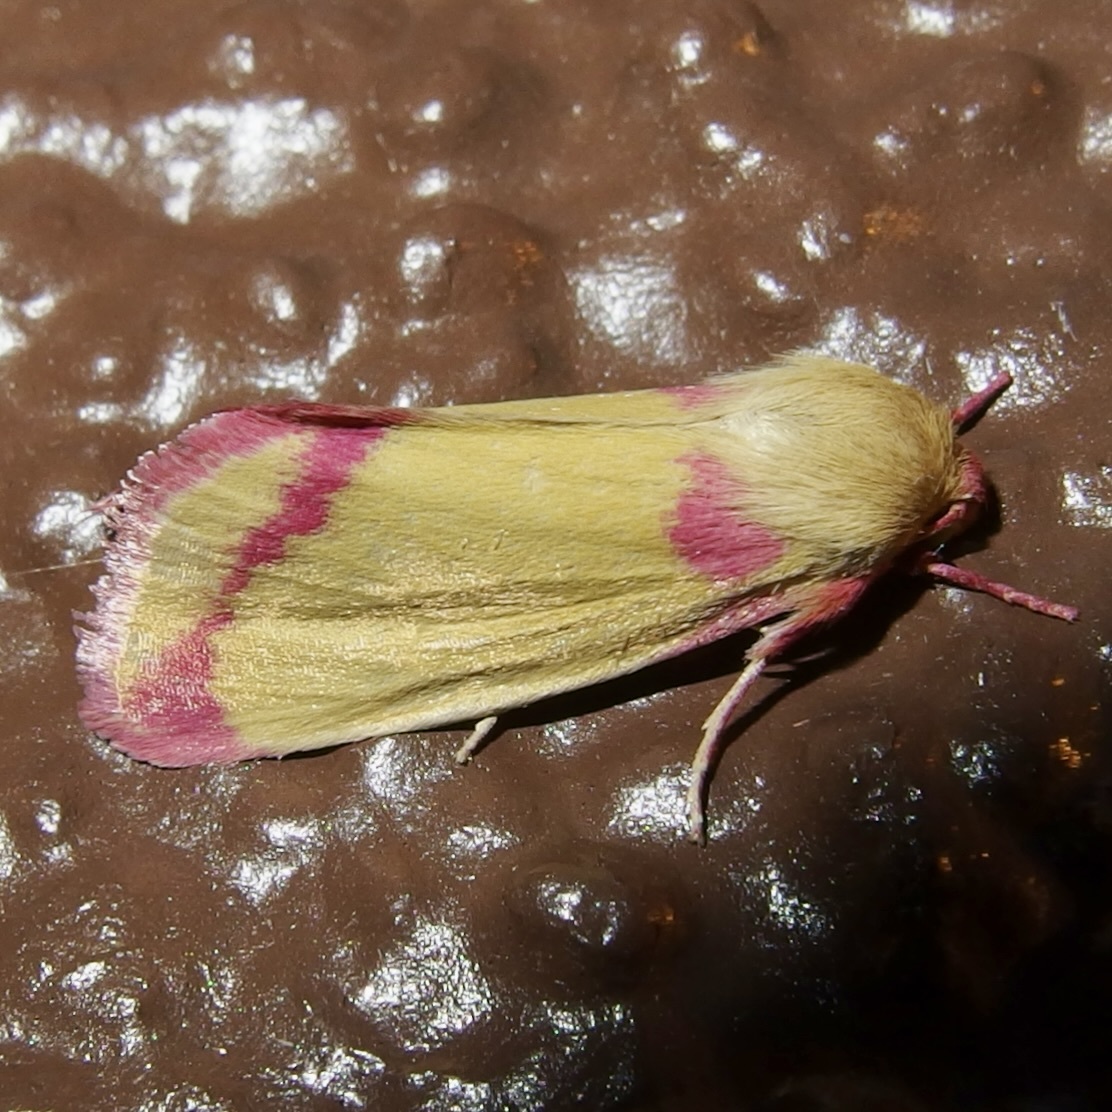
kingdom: Animalia
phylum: Arthropoda
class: Insecta
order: Lepidoptera
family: Noctuidae
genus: Heliocheilus
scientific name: Heliocheilus toralis
